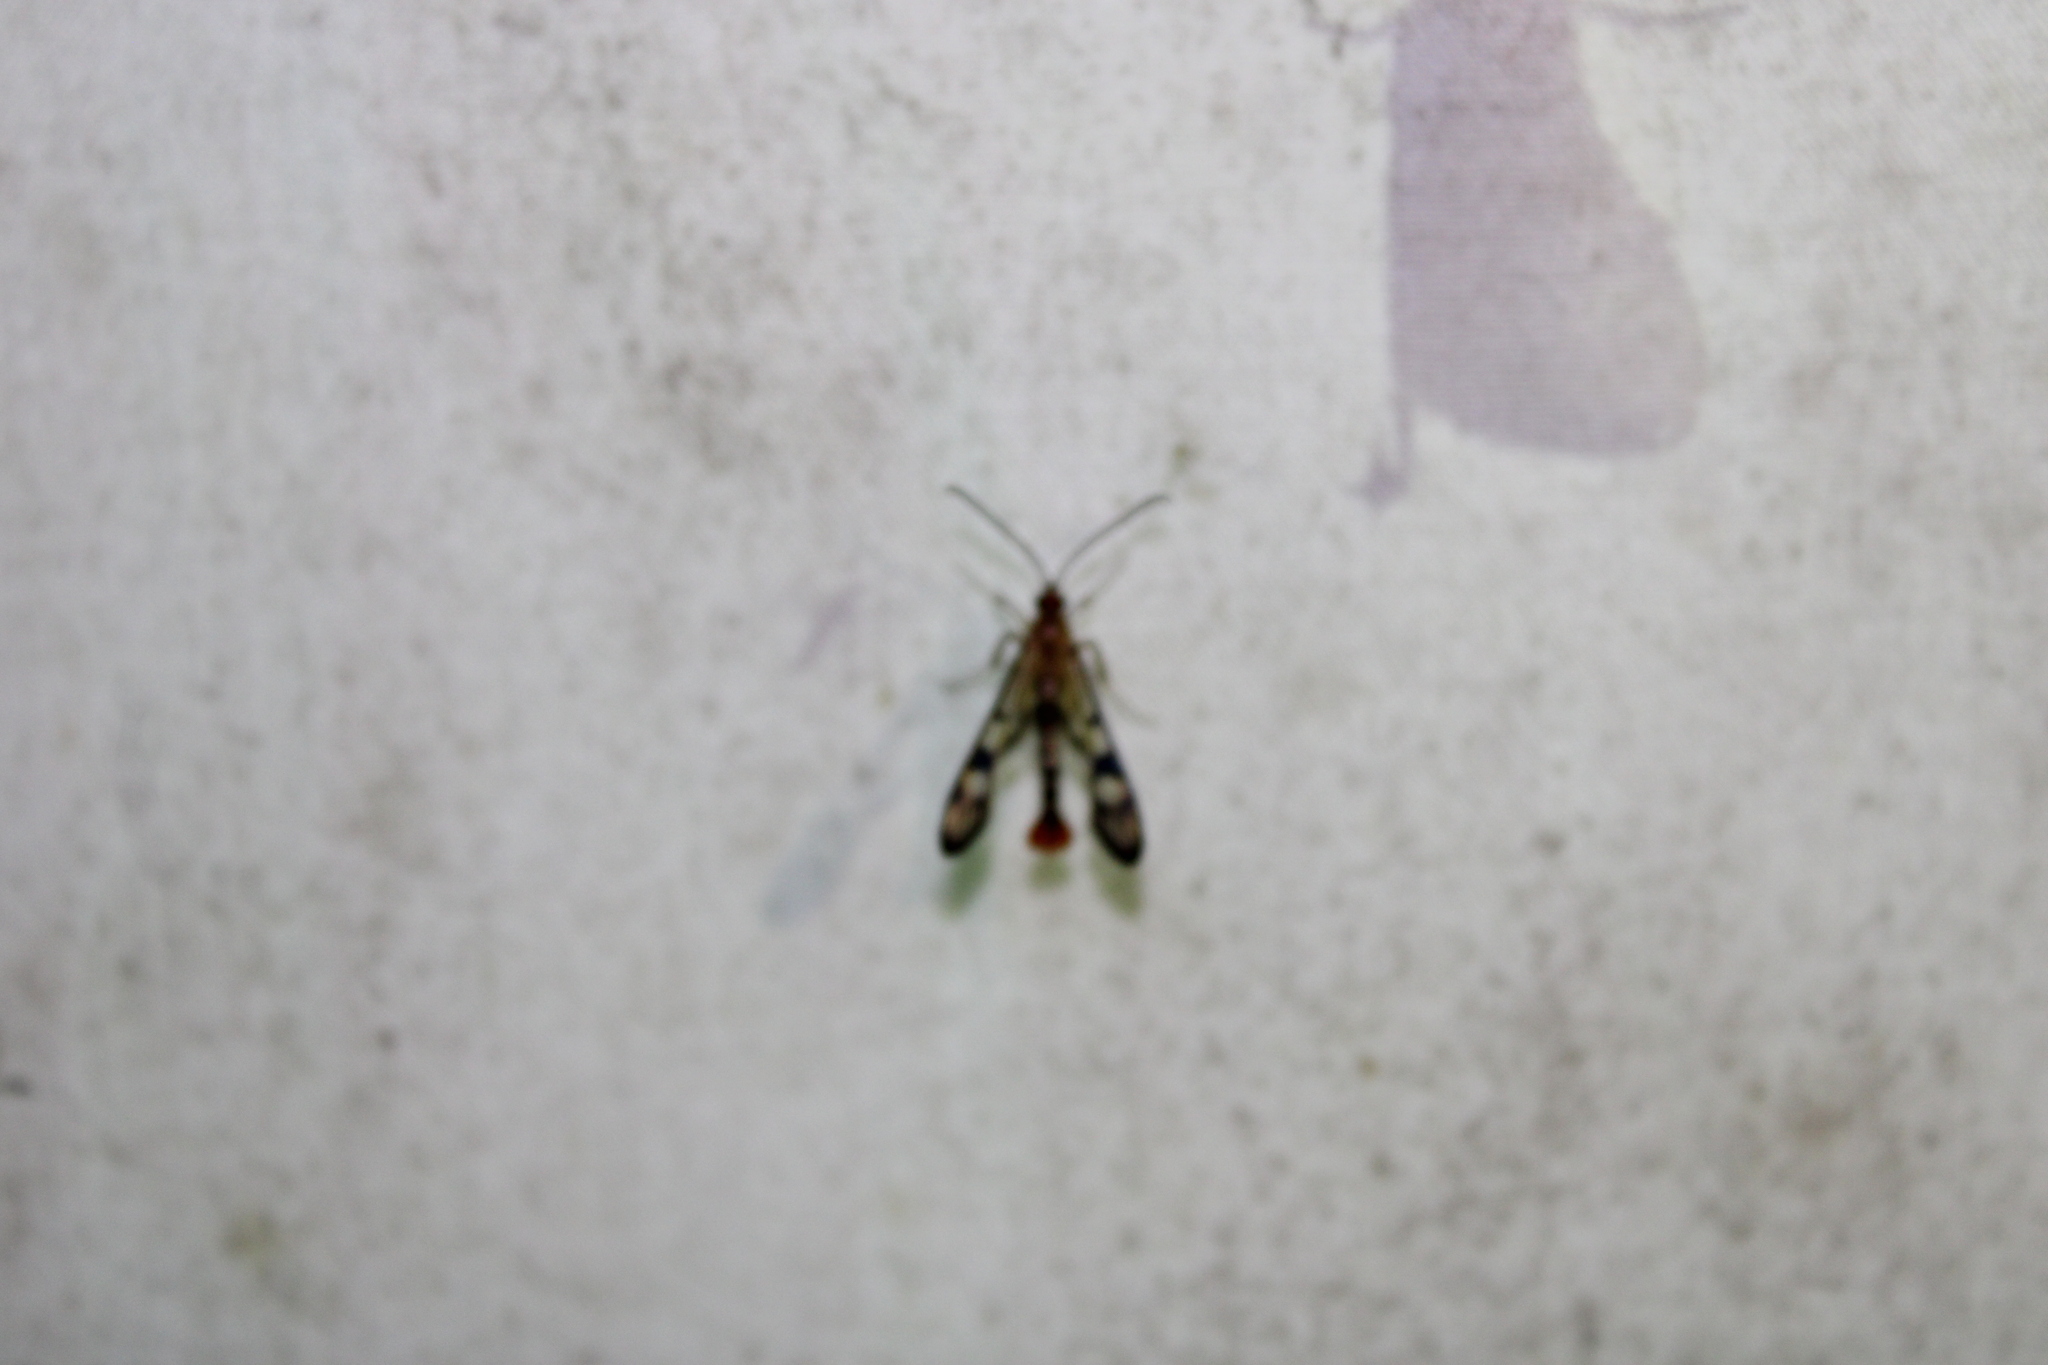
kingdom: Animalia
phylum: Arthropoda
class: Insecta
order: Lepidoptera
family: Sesiidae
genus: Synanthedon
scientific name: Synanthedon acerni
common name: Maple callus borer moth
